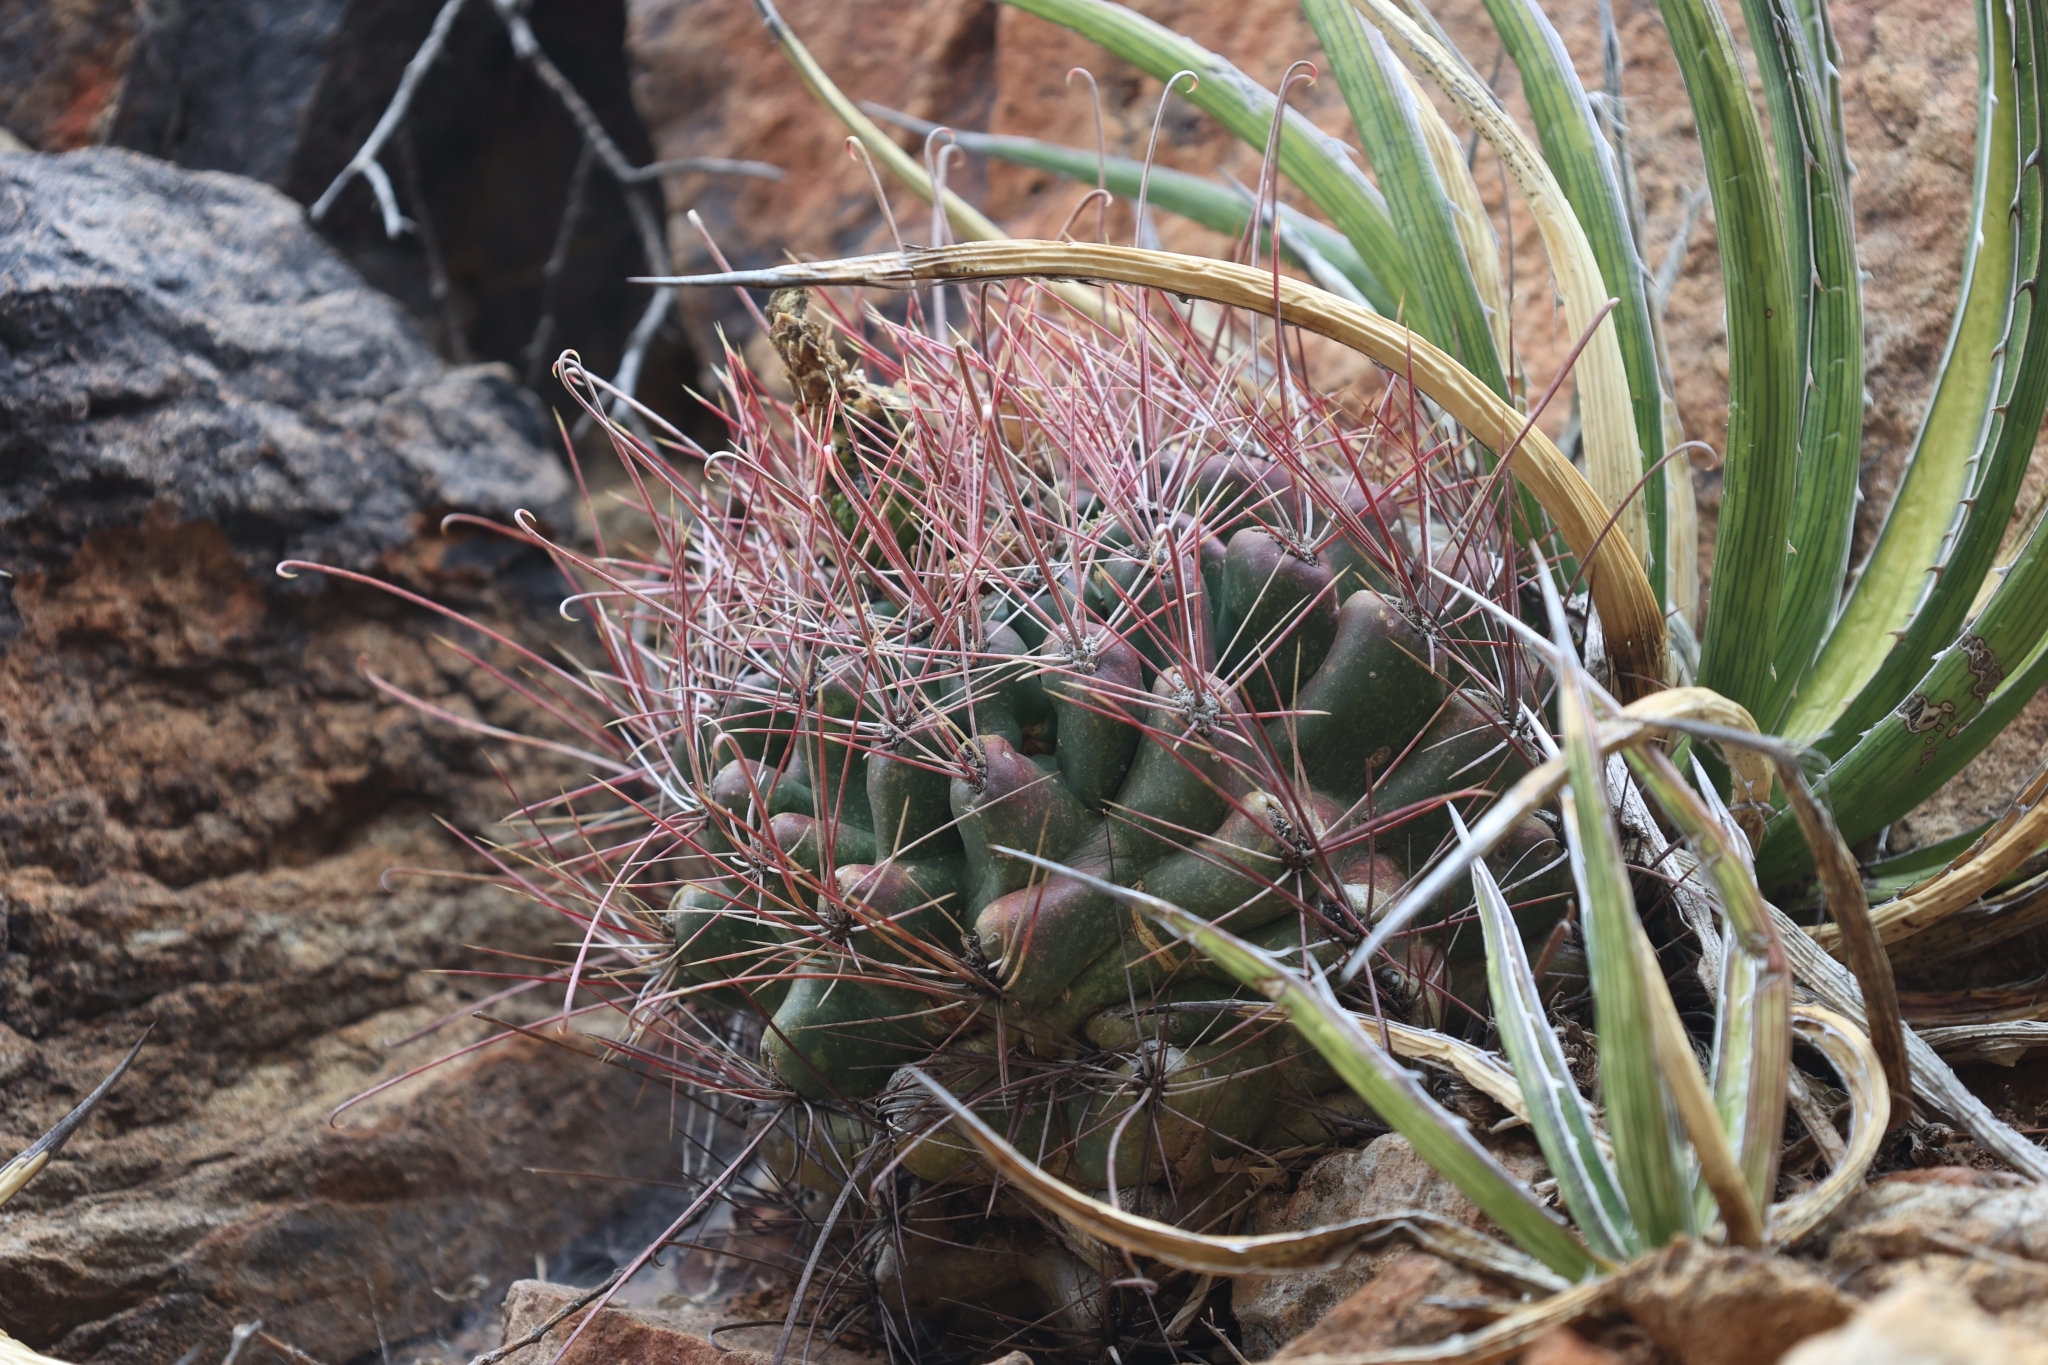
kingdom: Plantae
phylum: Tracheophyta
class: Magnoliopsida
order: Caryophyllales
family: Cactaceae
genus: Bisnaga
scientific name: Bisnaga hamatacantha
